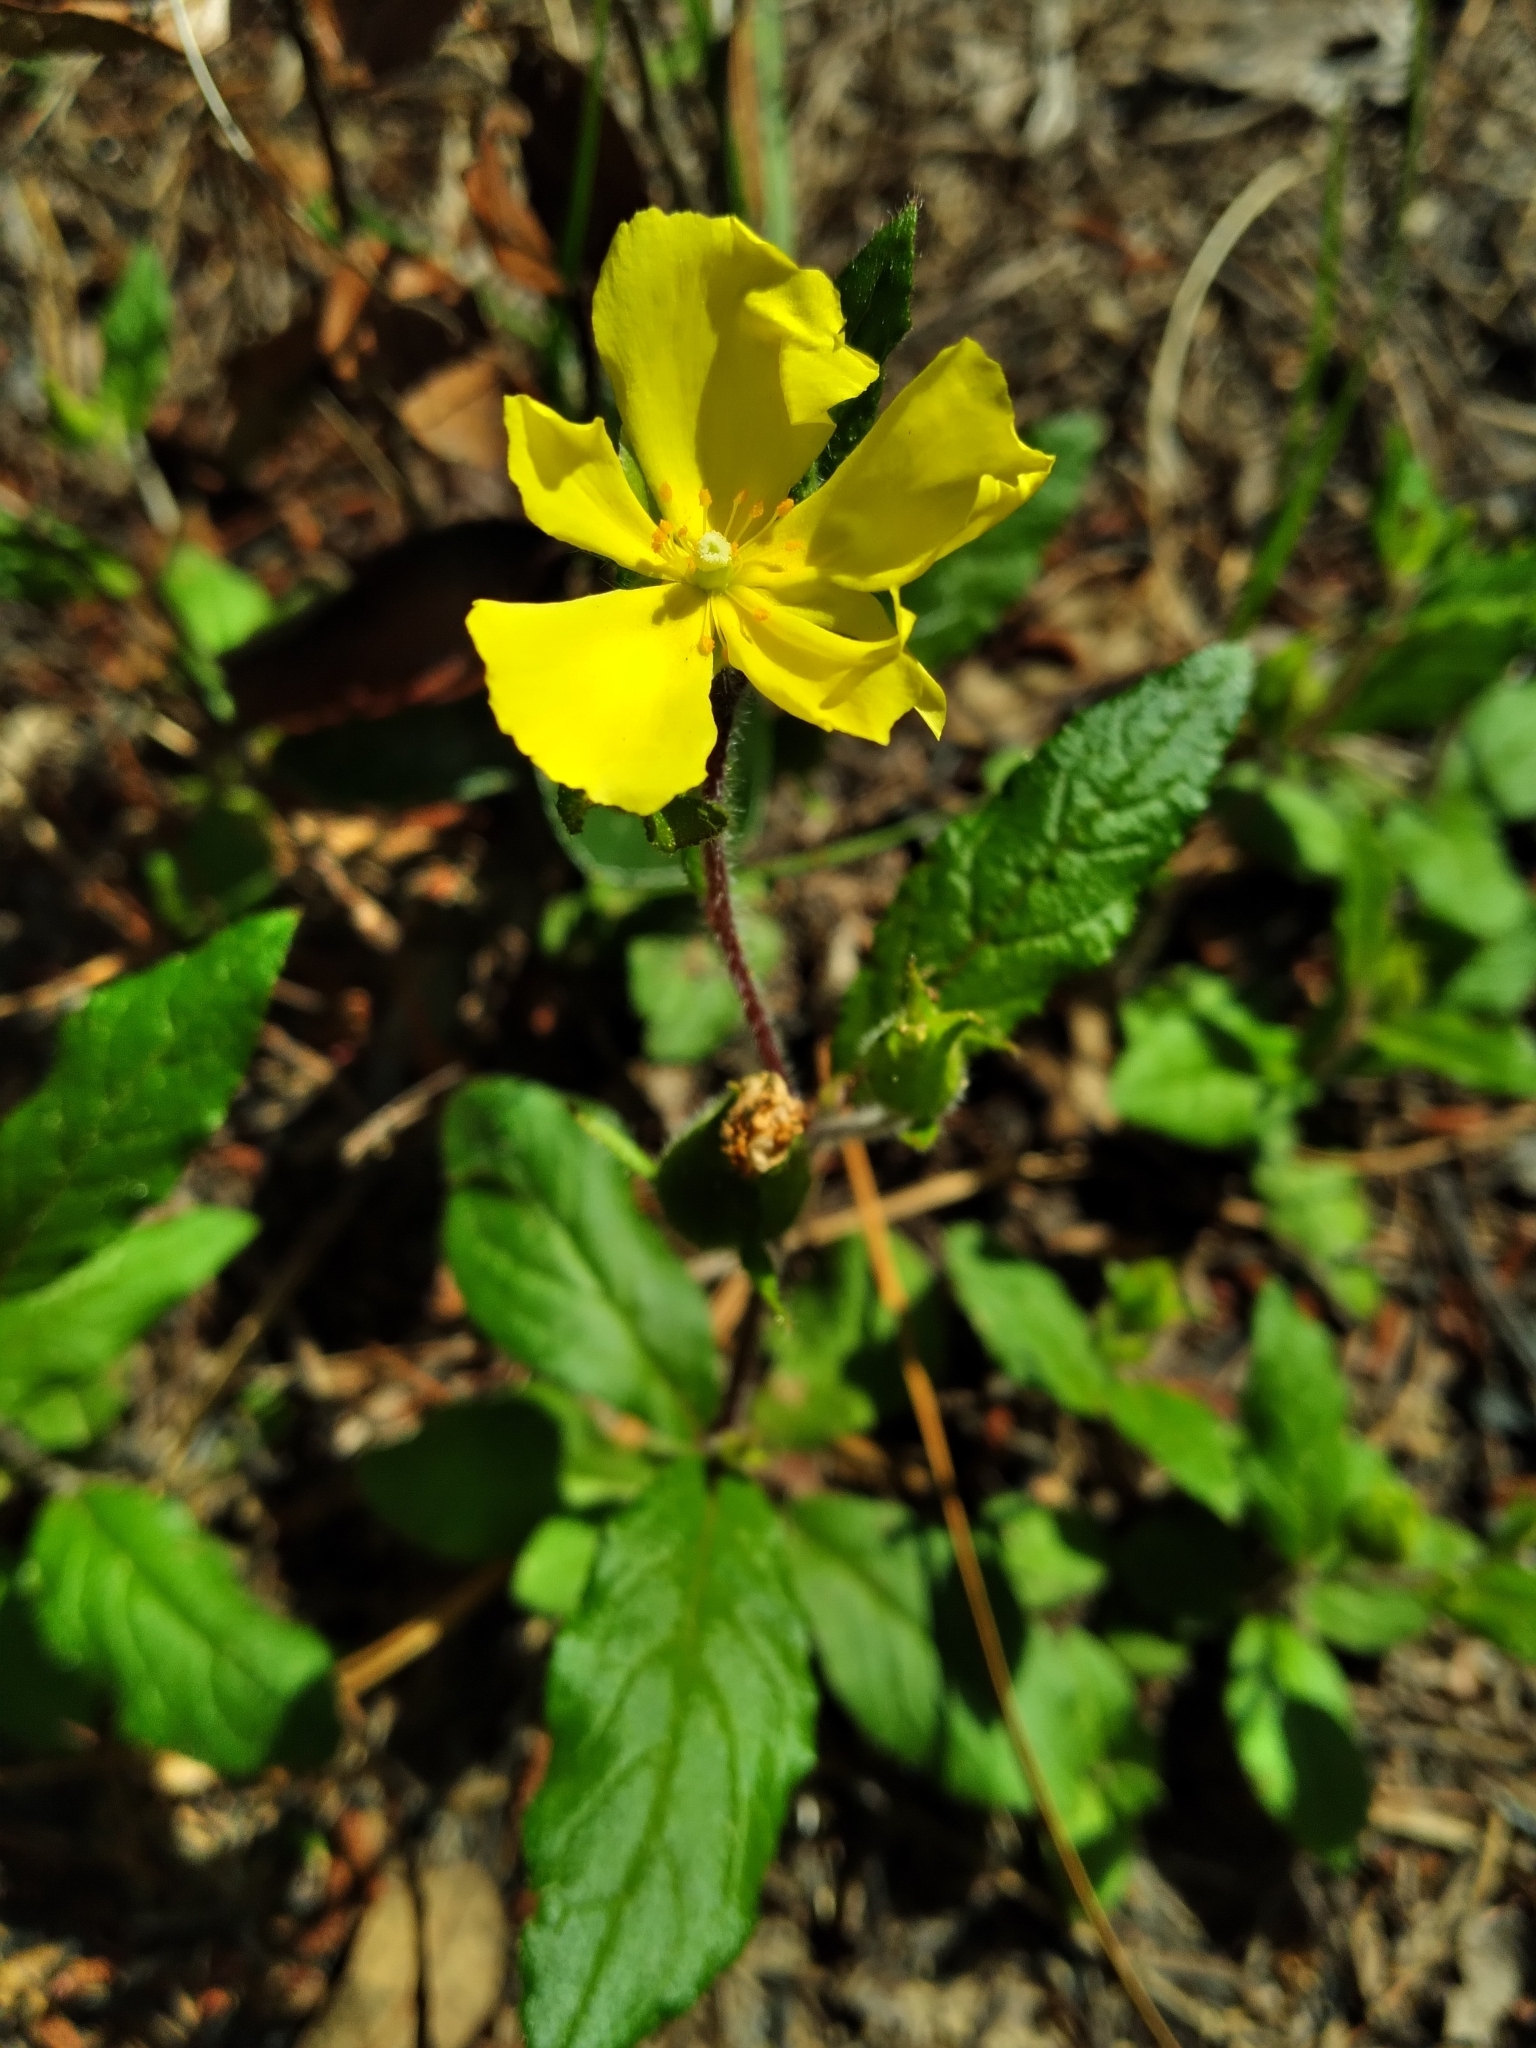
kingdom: Plantae
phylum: Tracheophyta
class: Magnoliopsida
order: Malvales
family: Cistaceae
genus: Crocanthemum
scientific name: Crocanthemum carolinianum
